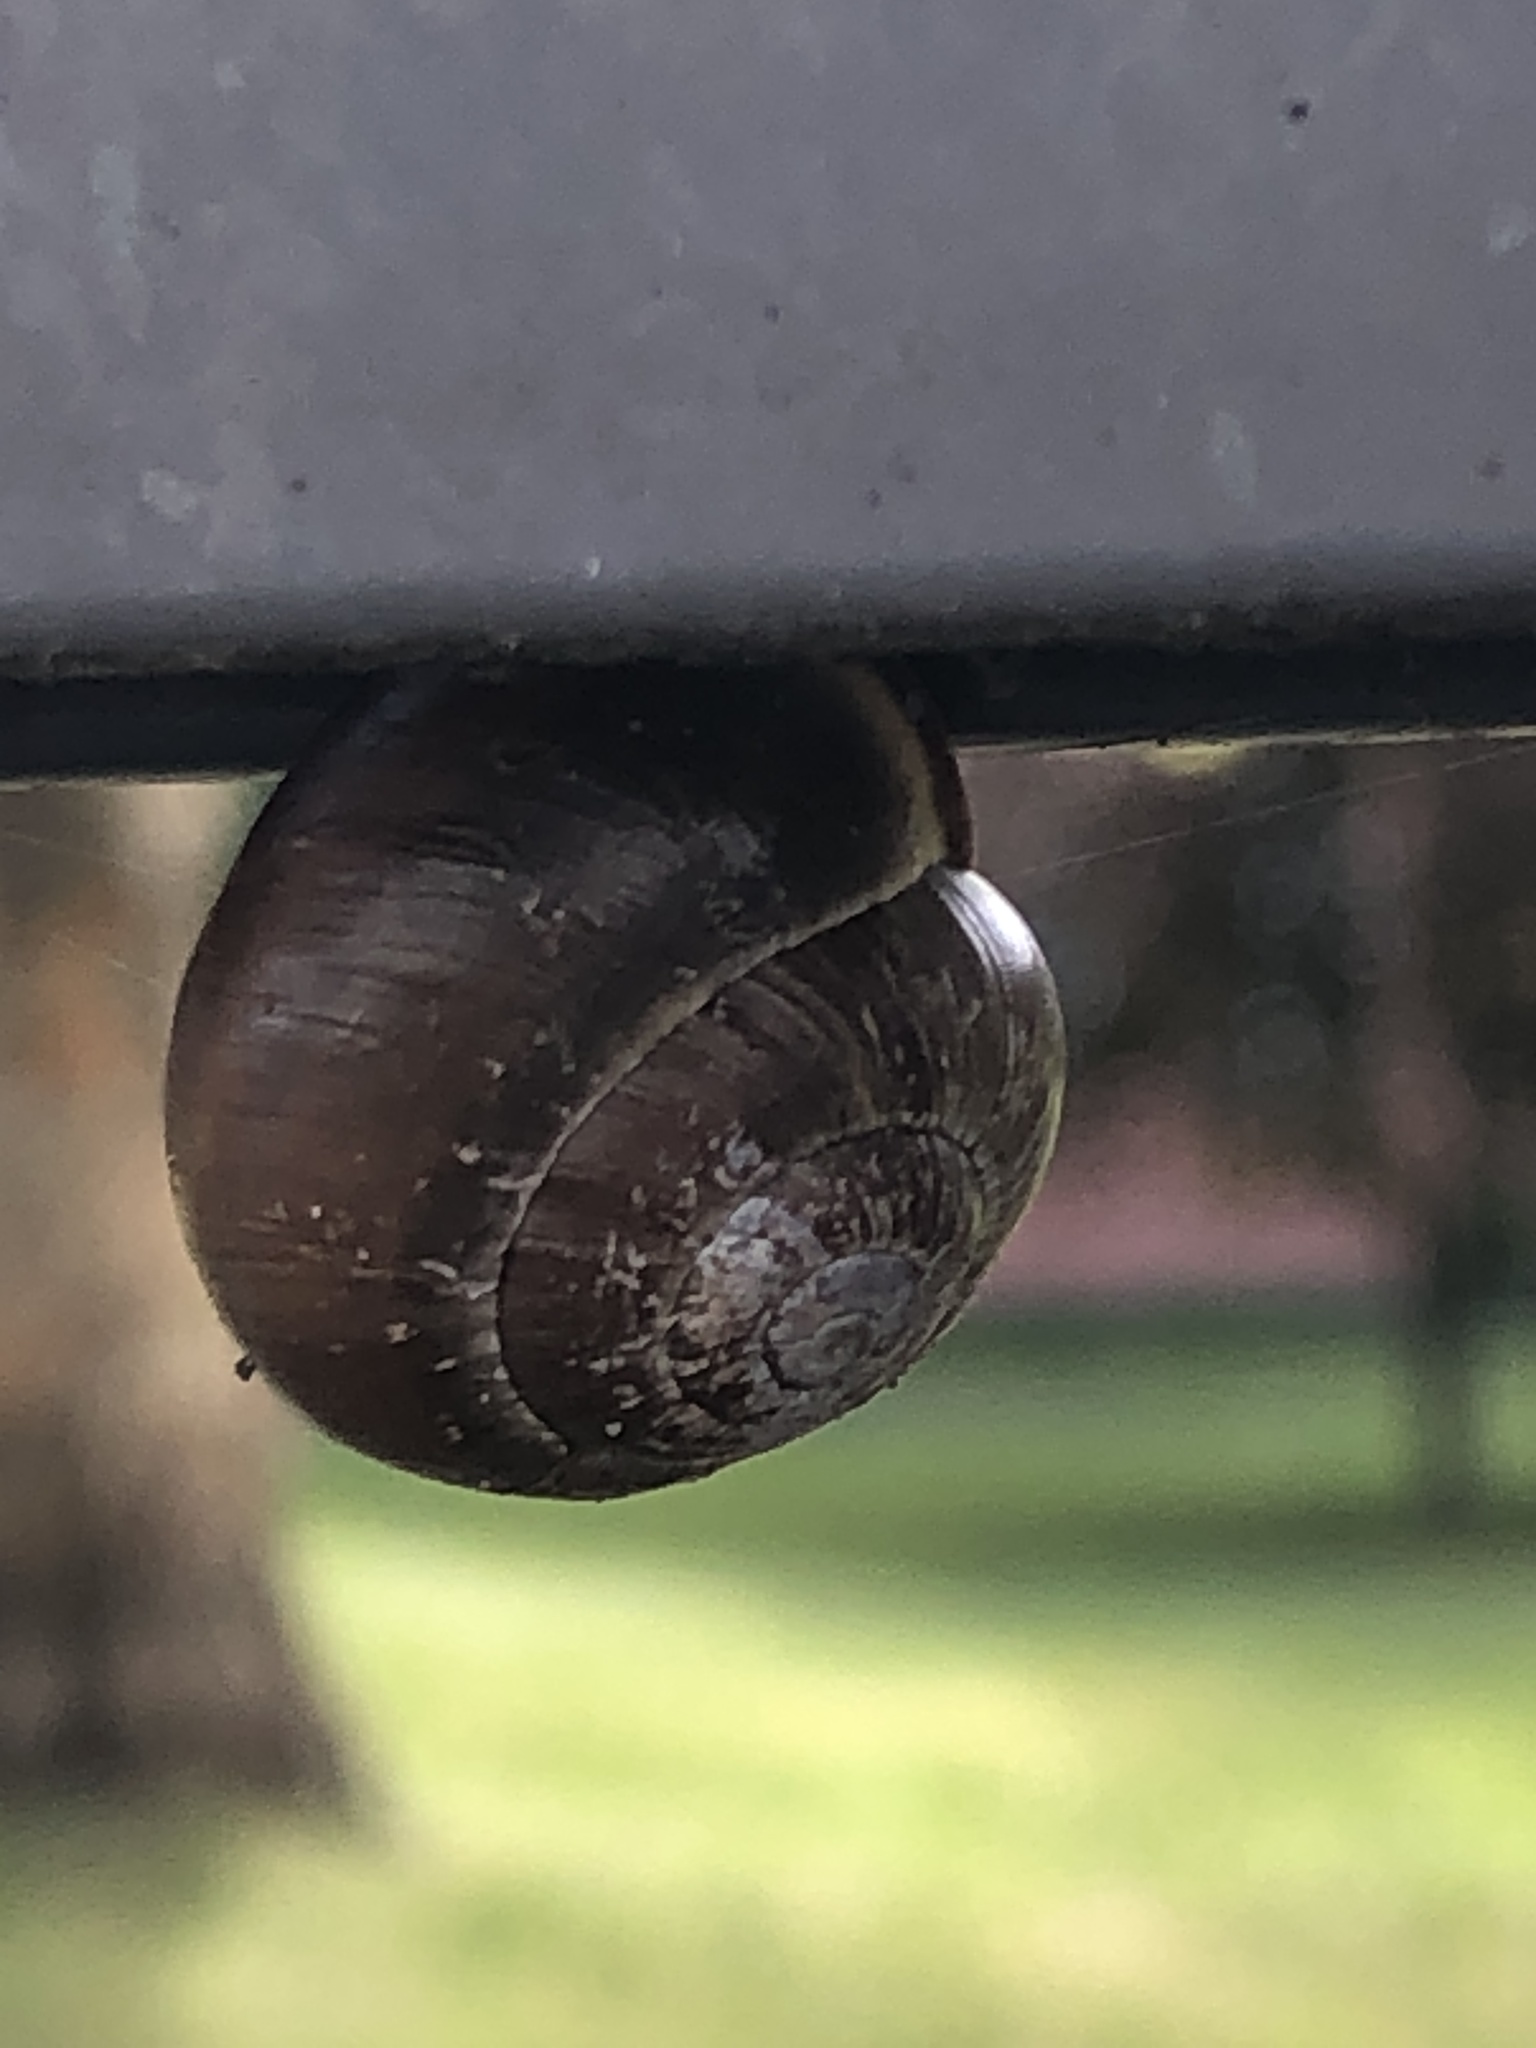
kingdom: Animalia
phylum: Mollusca
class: Gastropoda
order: Stylommatophora
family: Helicidae
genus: Cepaea
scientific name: Cepaea nemoralis
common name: Grovesnail
